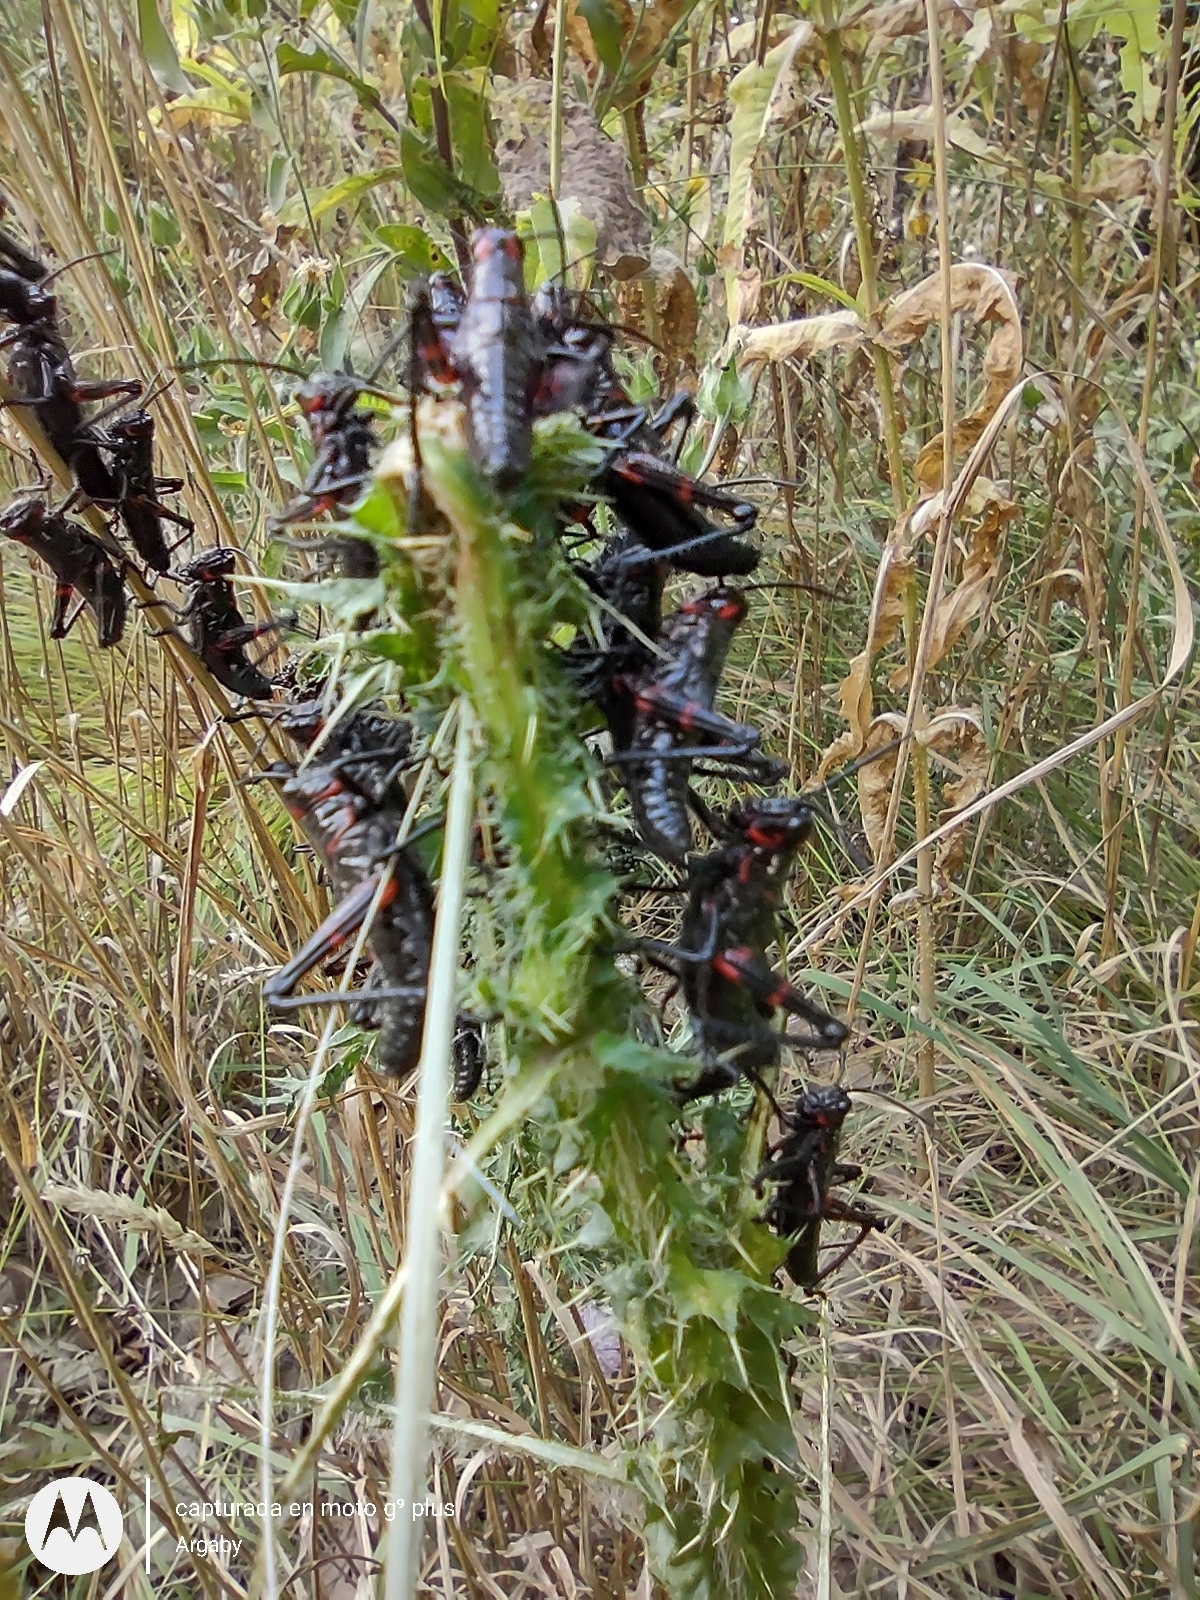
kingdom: Animalia
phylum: Arthropoda
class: Insecta
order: Orthoptera
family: Romaleidae
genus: Chromacris
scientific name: Chromacris speciosa
